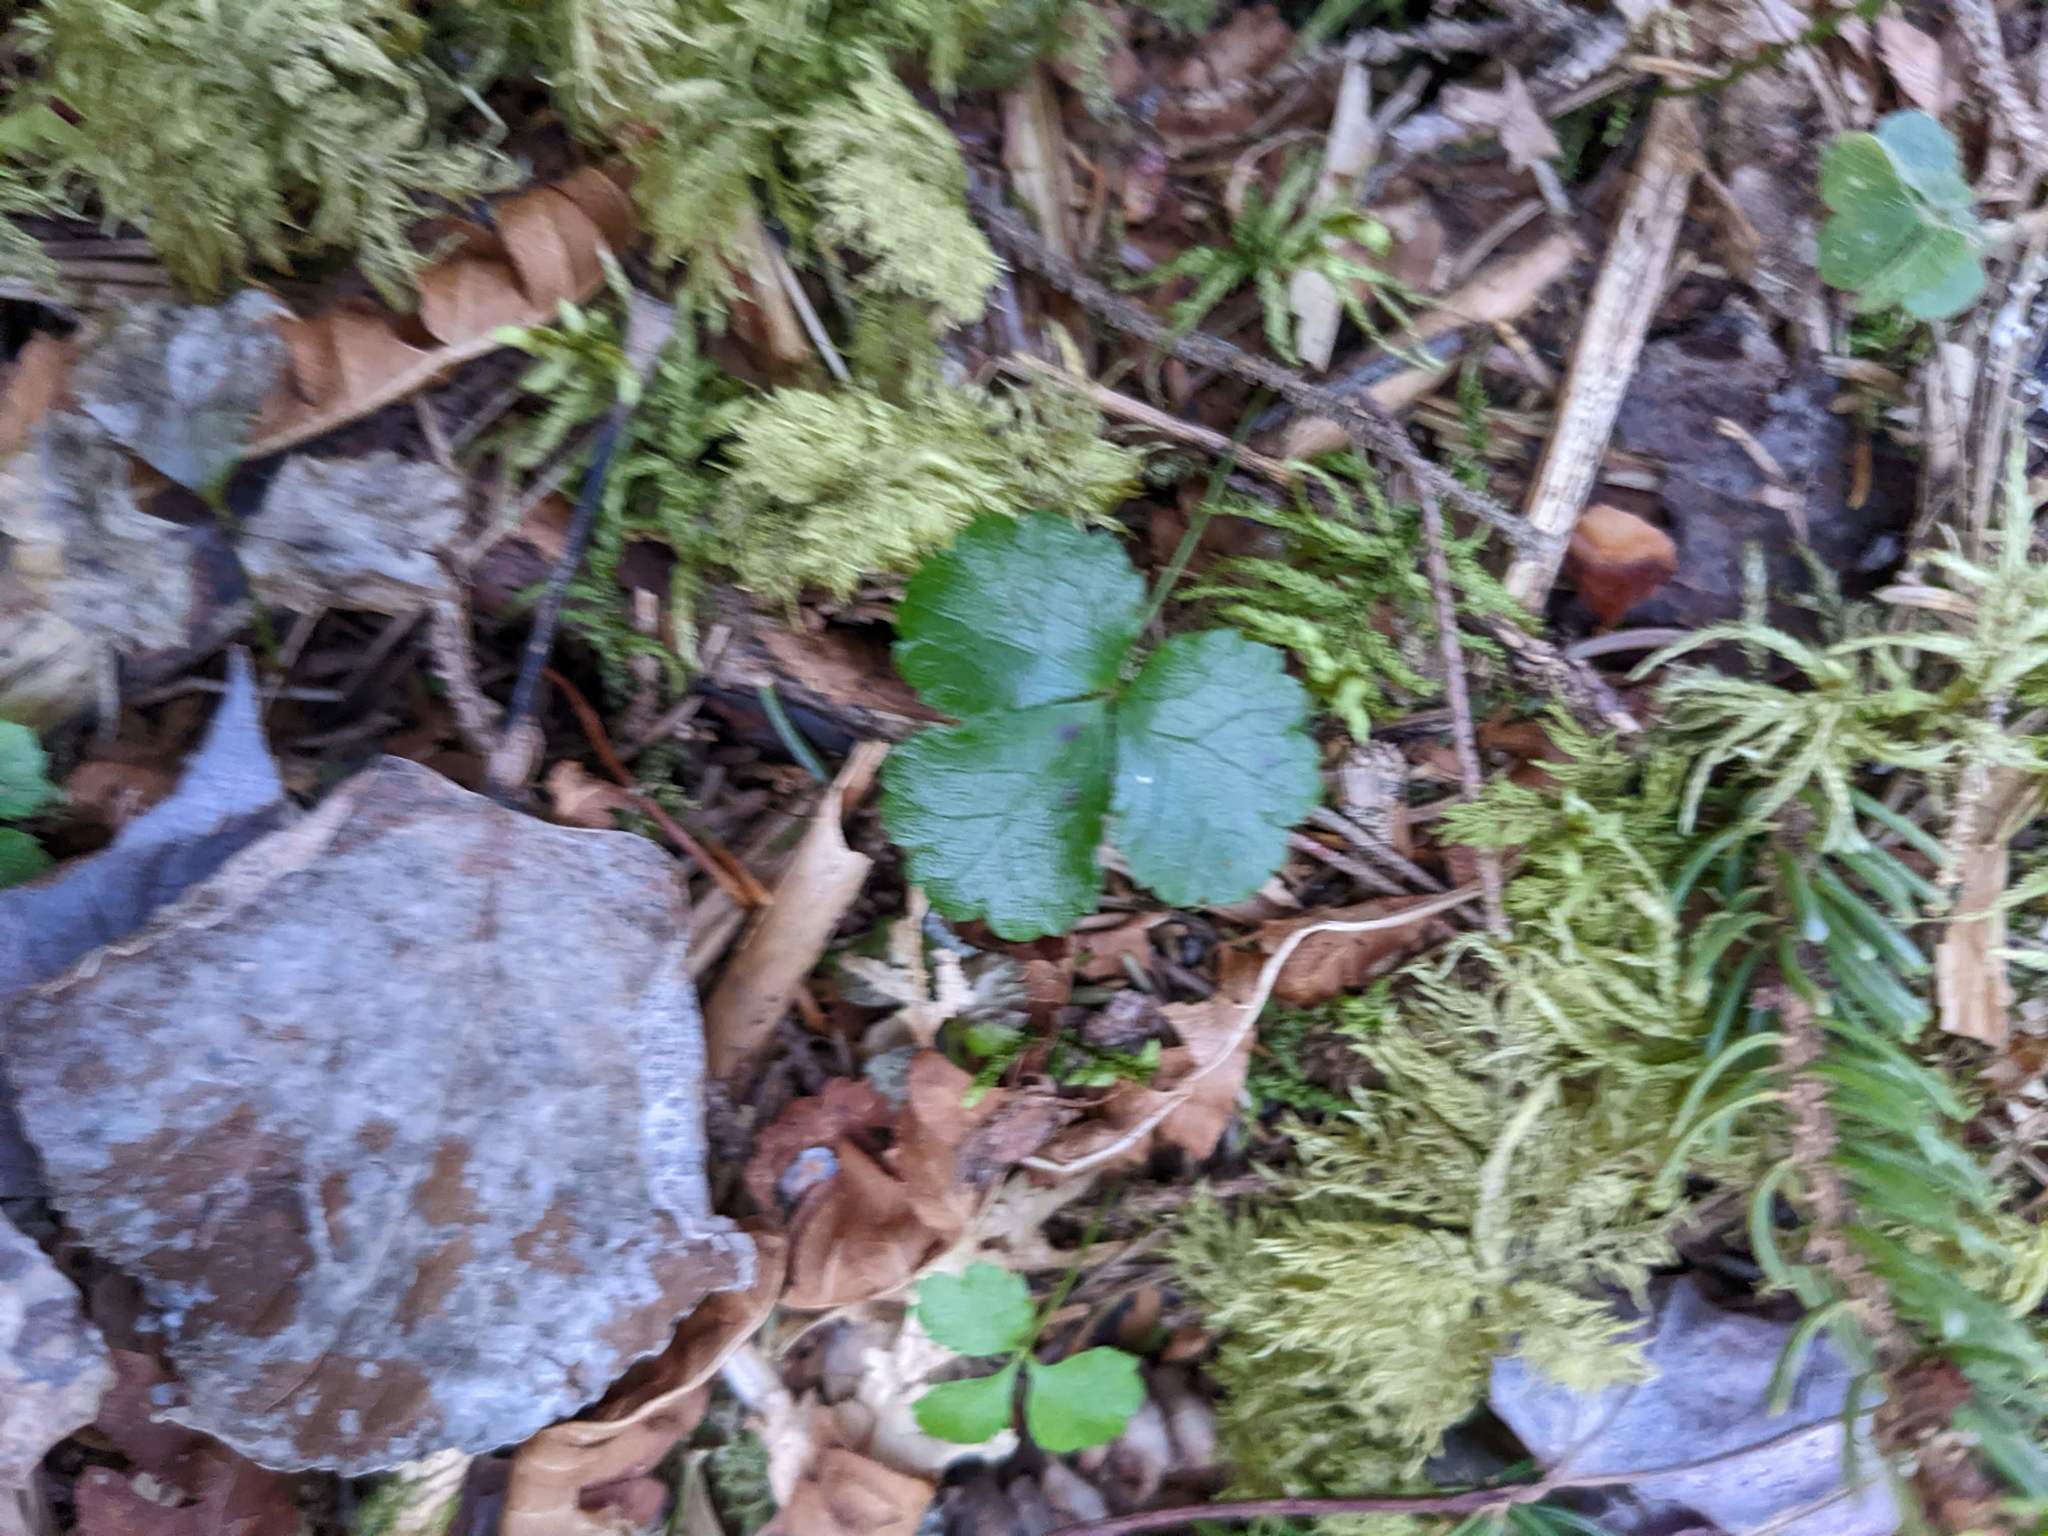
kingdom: Plantae
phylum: Tracheophyta
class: Magnoliopsida
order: Ranunculales
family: Ranunculaceae
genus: Coptis
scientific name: Coptis trifolia
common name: Canker-root
